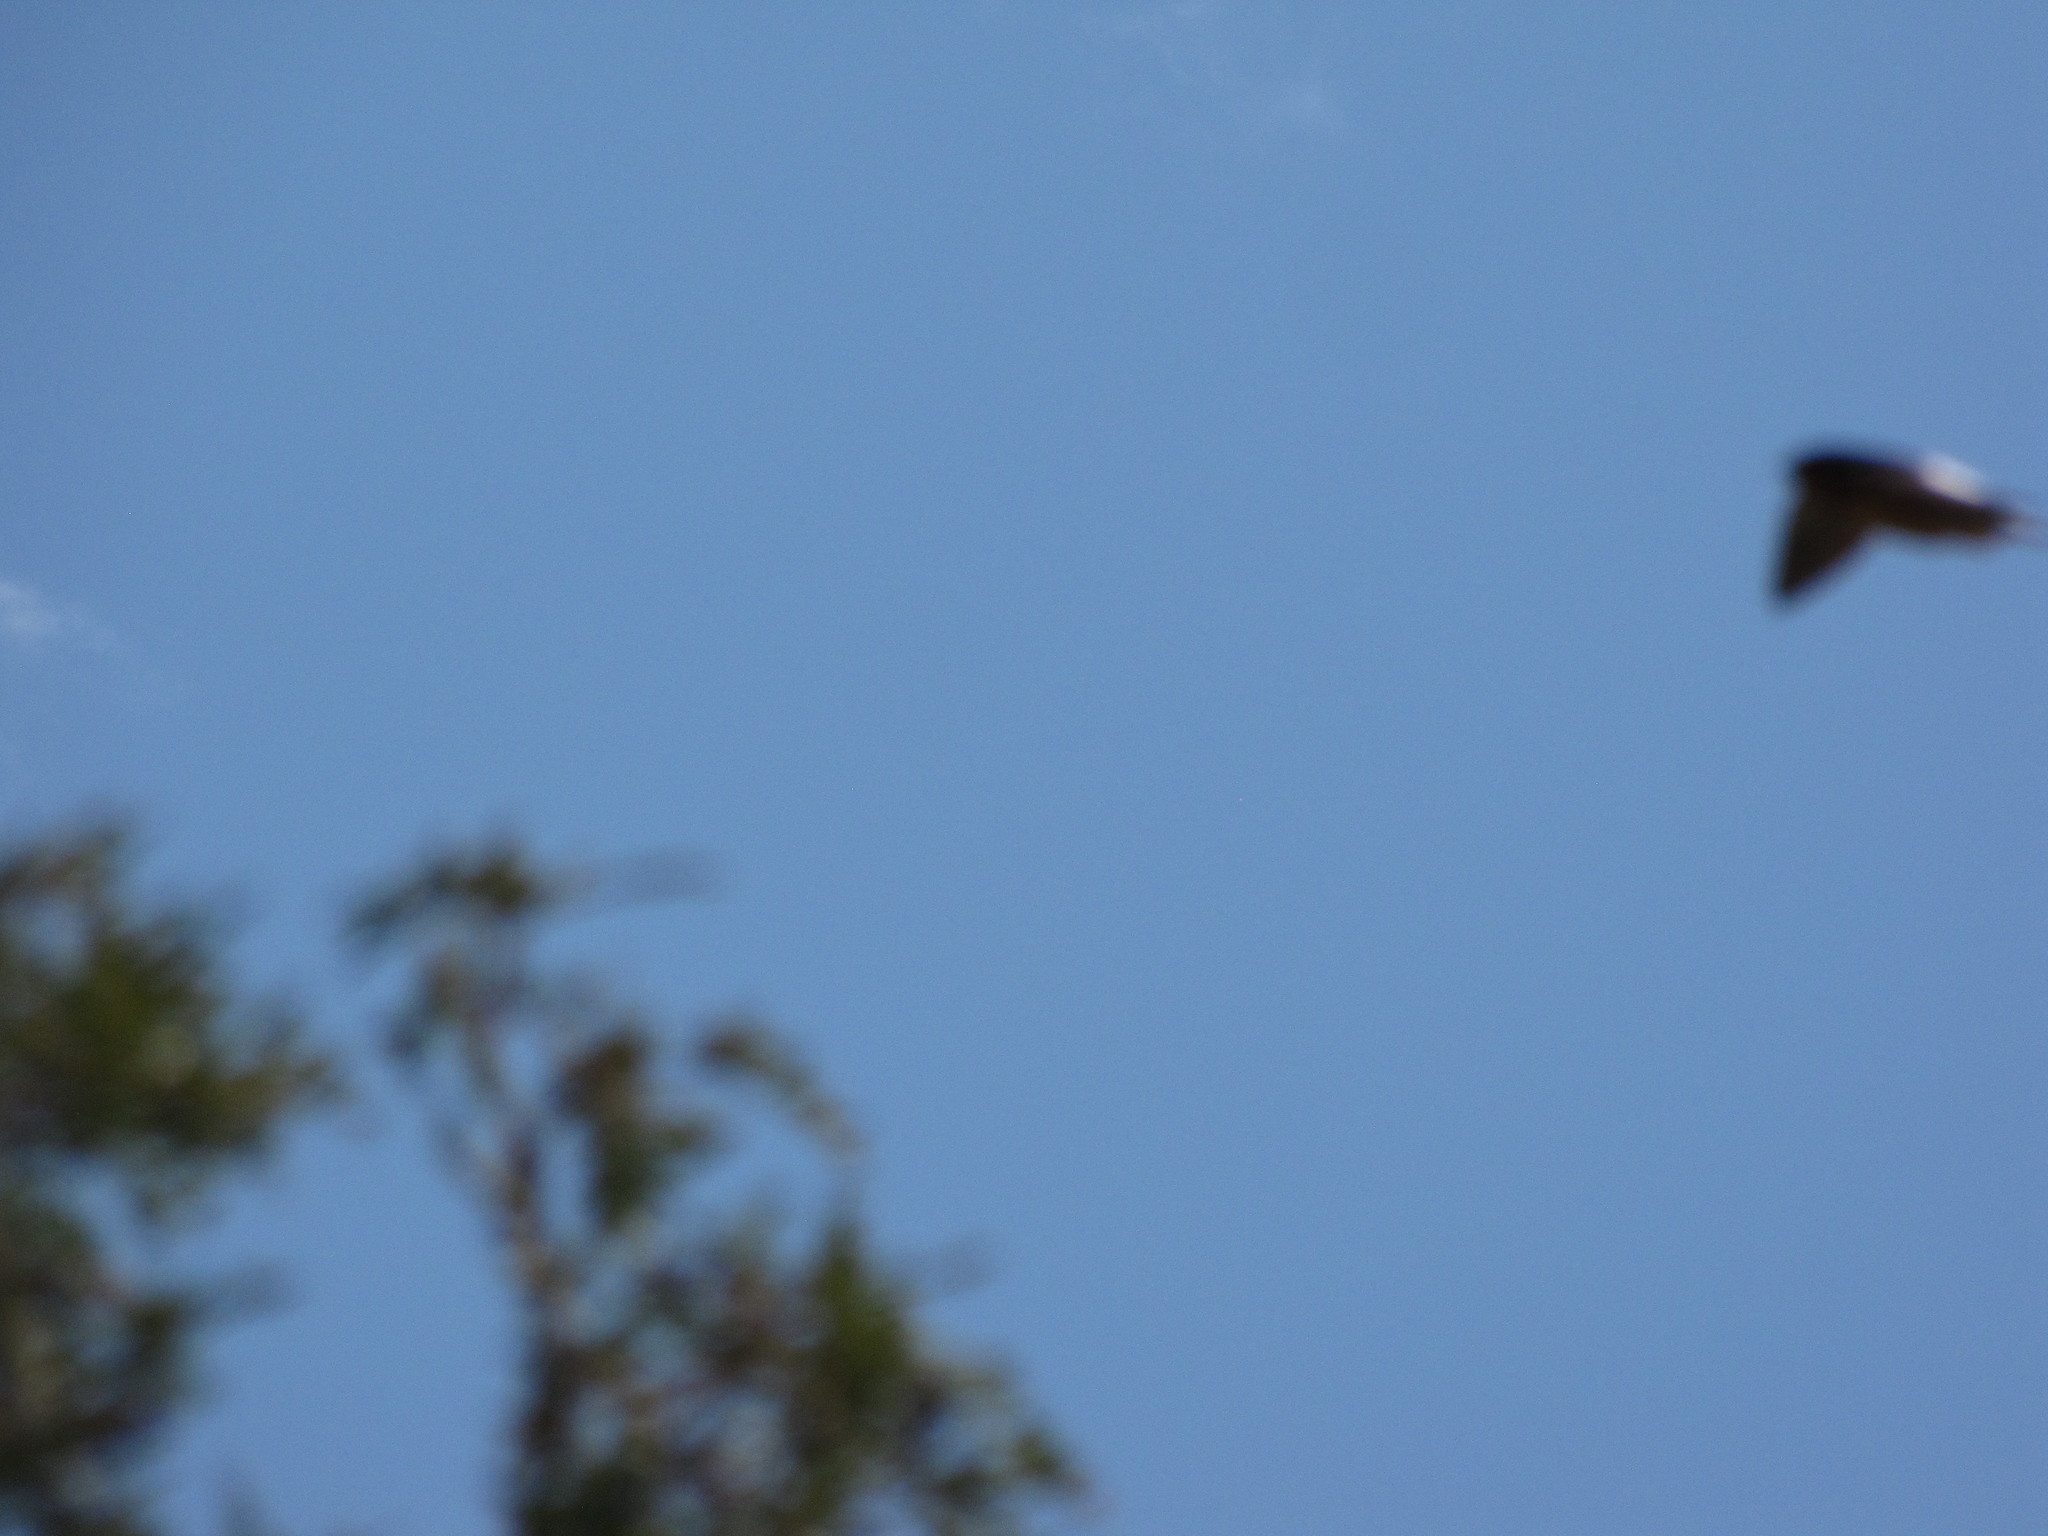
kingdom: Animalia
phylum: Chordata
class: Aves
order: Passeriformes
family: Hirundinidae
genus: Hirundo
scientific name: Hirundo rustica
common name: Barn swallow
